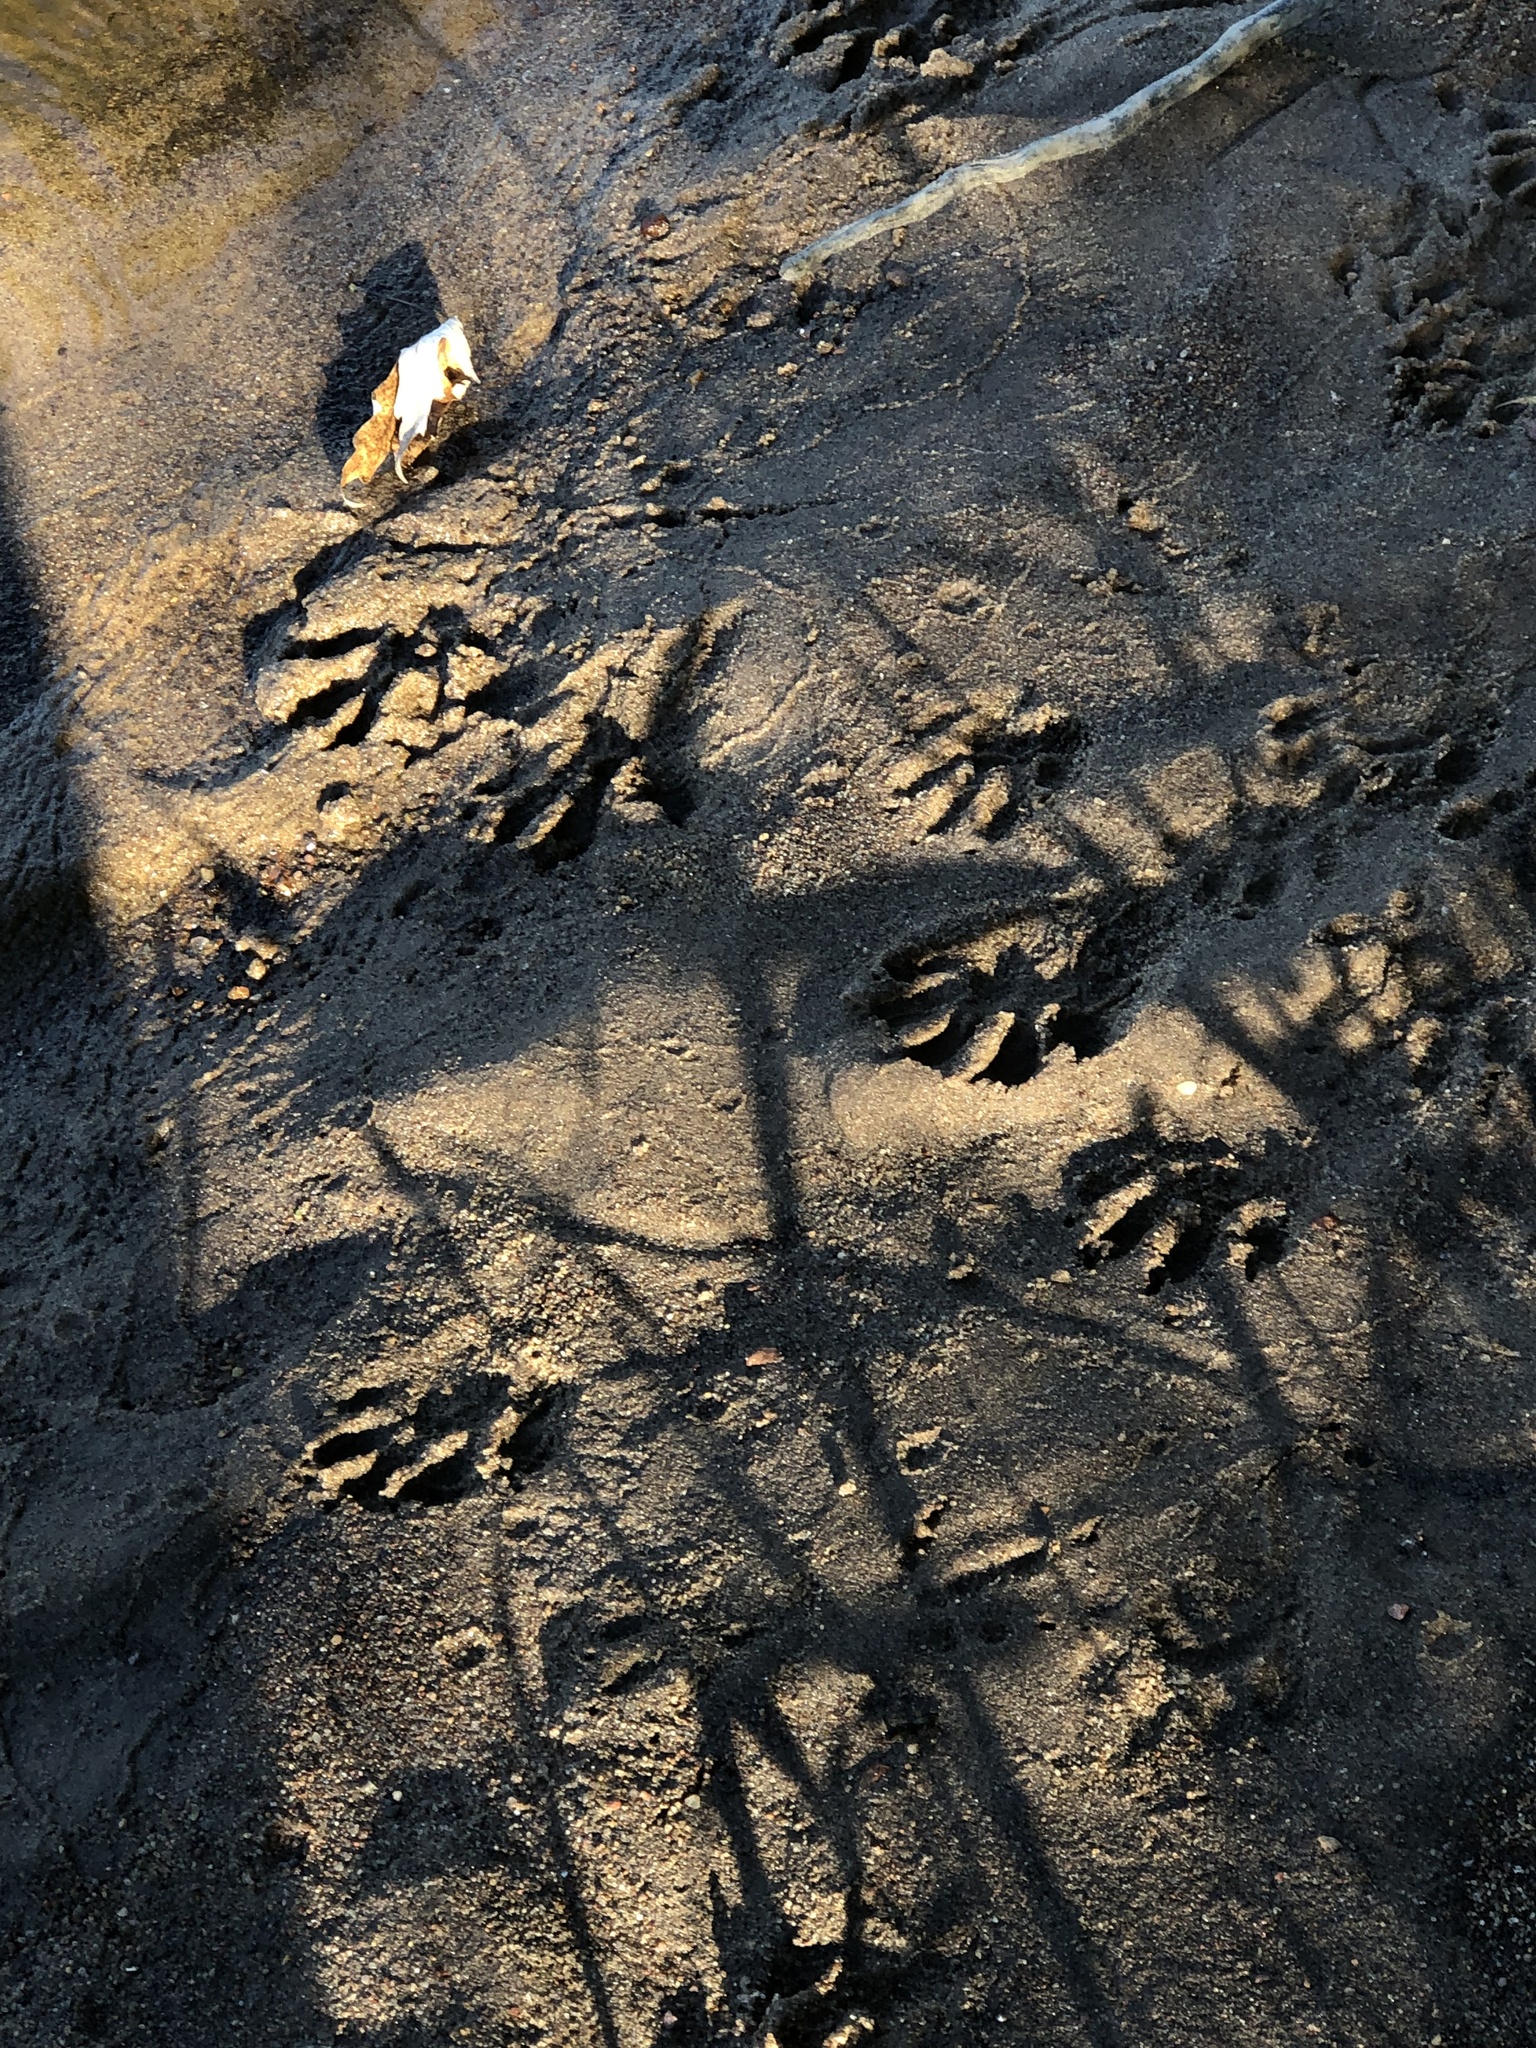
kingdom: Animalia
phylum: Chordata
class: Mammalia
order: Carnivora
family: Procyonidae
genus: Procyon
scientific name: Procyon lotor
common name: Raccoon
